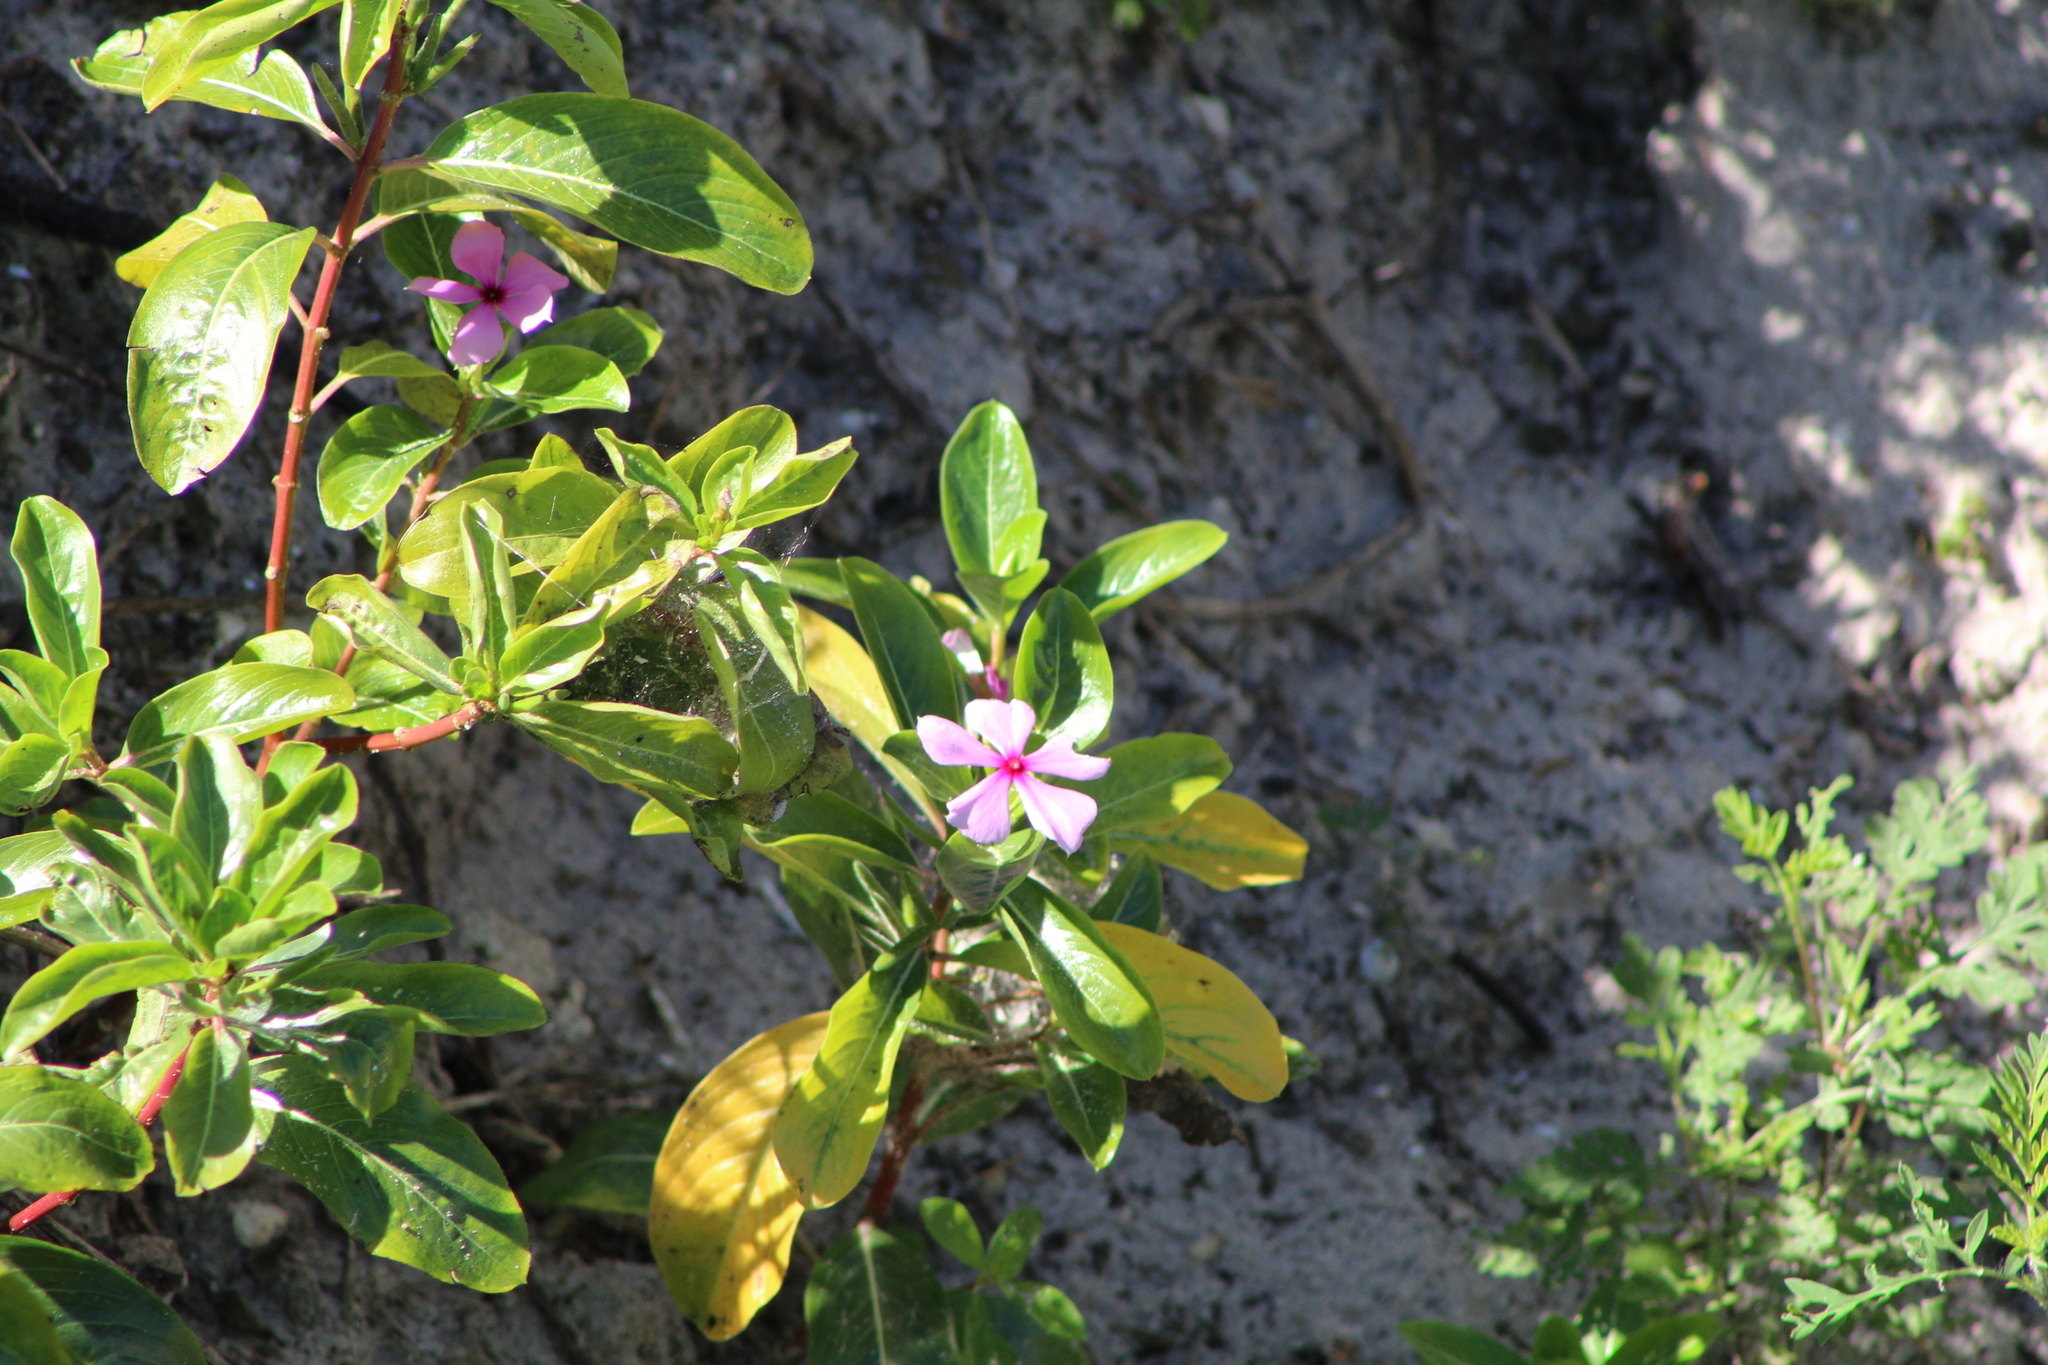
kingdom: Plantae
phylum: Tracheophyta
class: Magnoliopsida
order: Gentianales
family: Apocynaceae
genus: Catharanthus
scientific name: Catharanthus roseus
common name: Madagascar periwinkle
